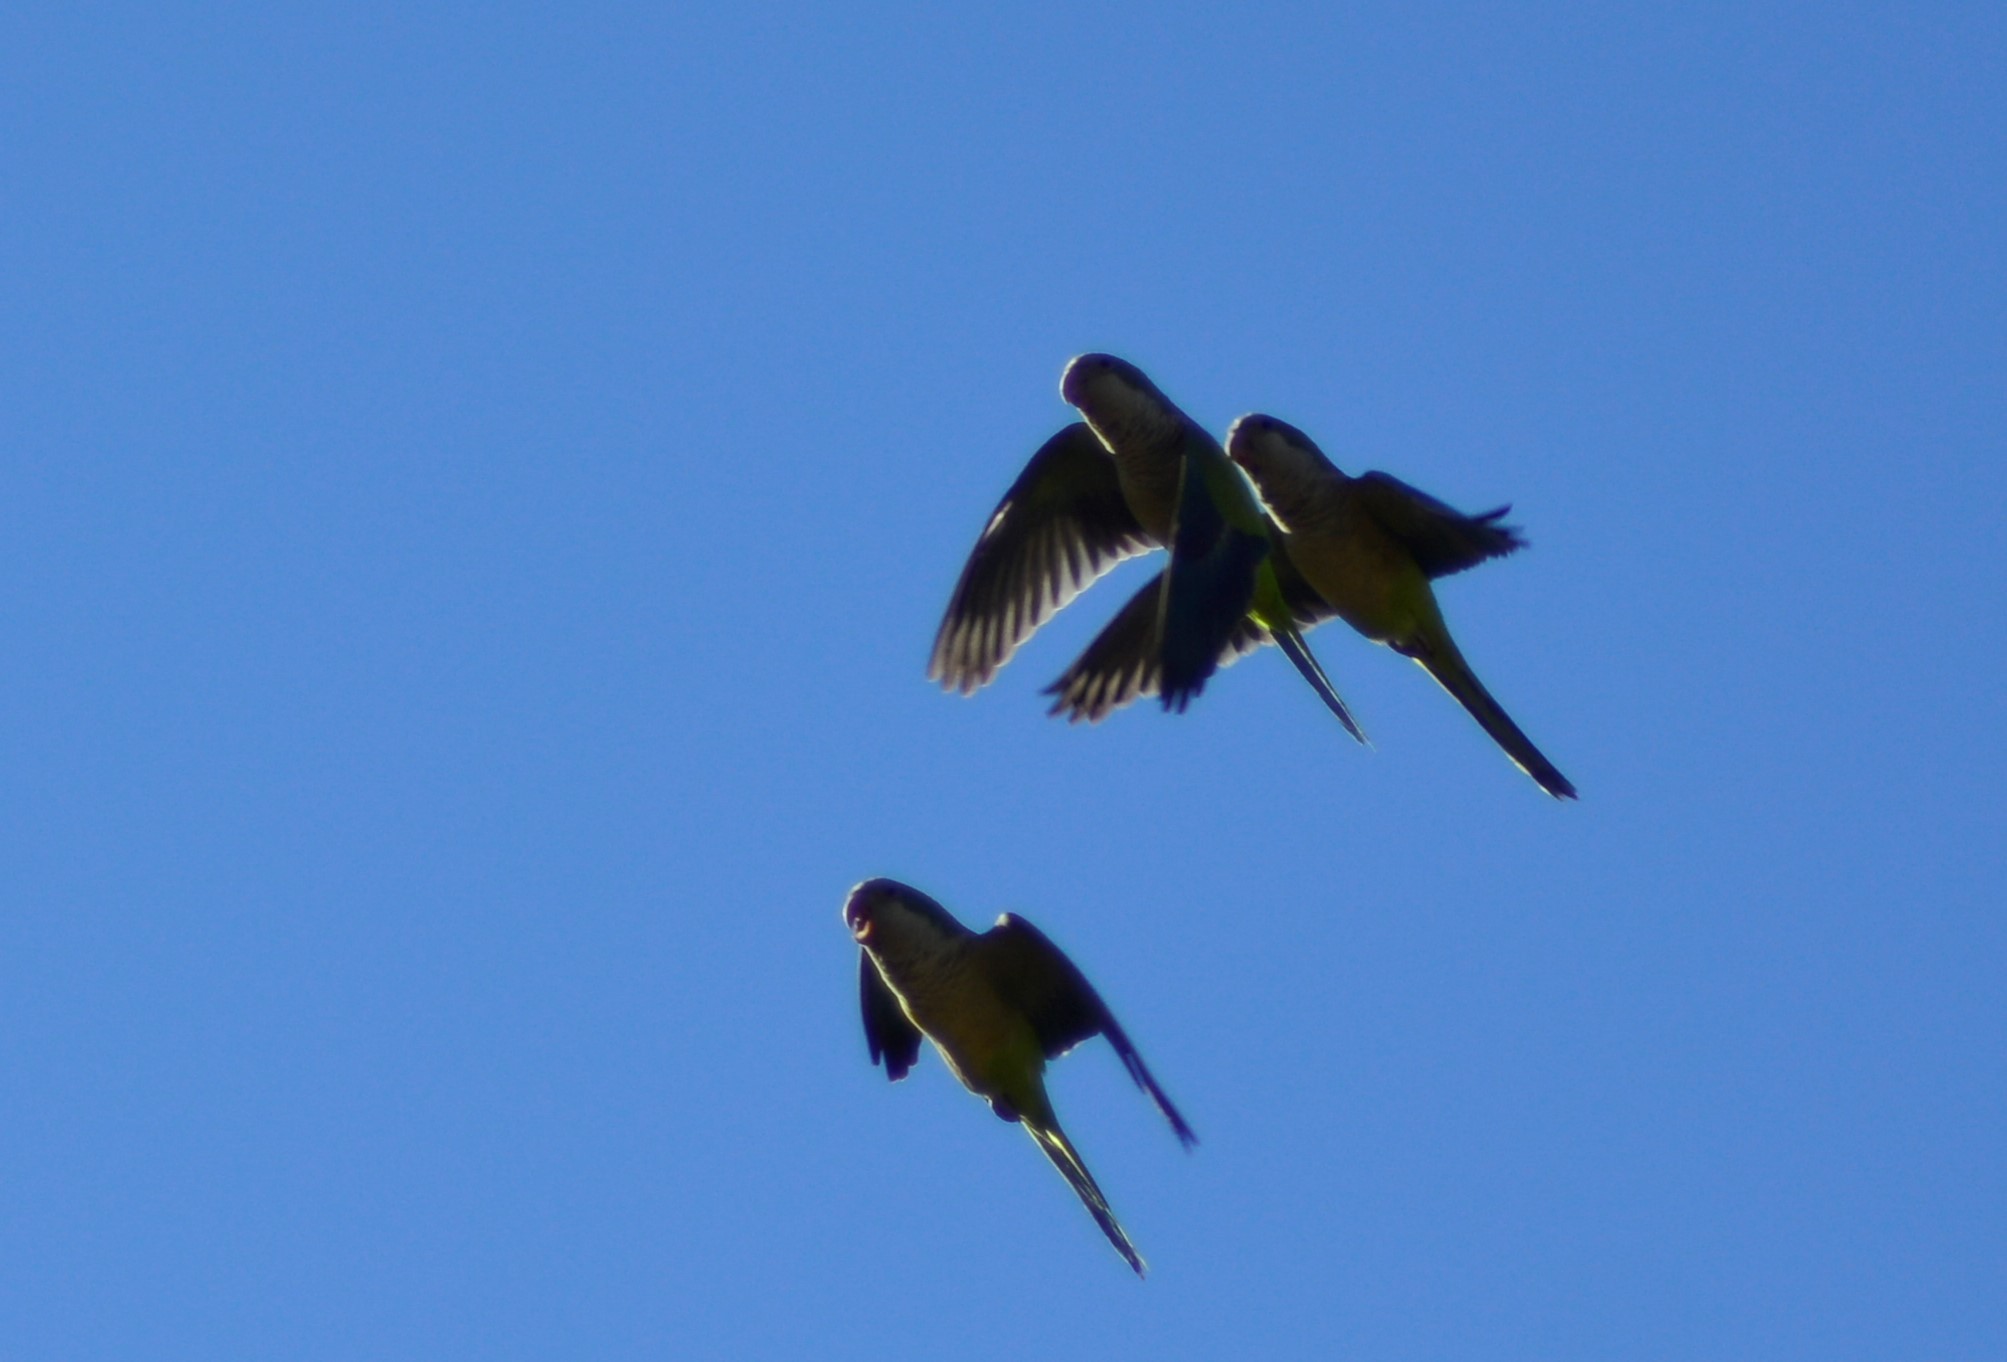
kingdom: Animalia
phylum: Chordata
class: Aves
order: Psittaciformes
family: Psittacidae
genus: Myiopsitta
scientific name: Myiopsitta monachus
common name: Monk parakeet
